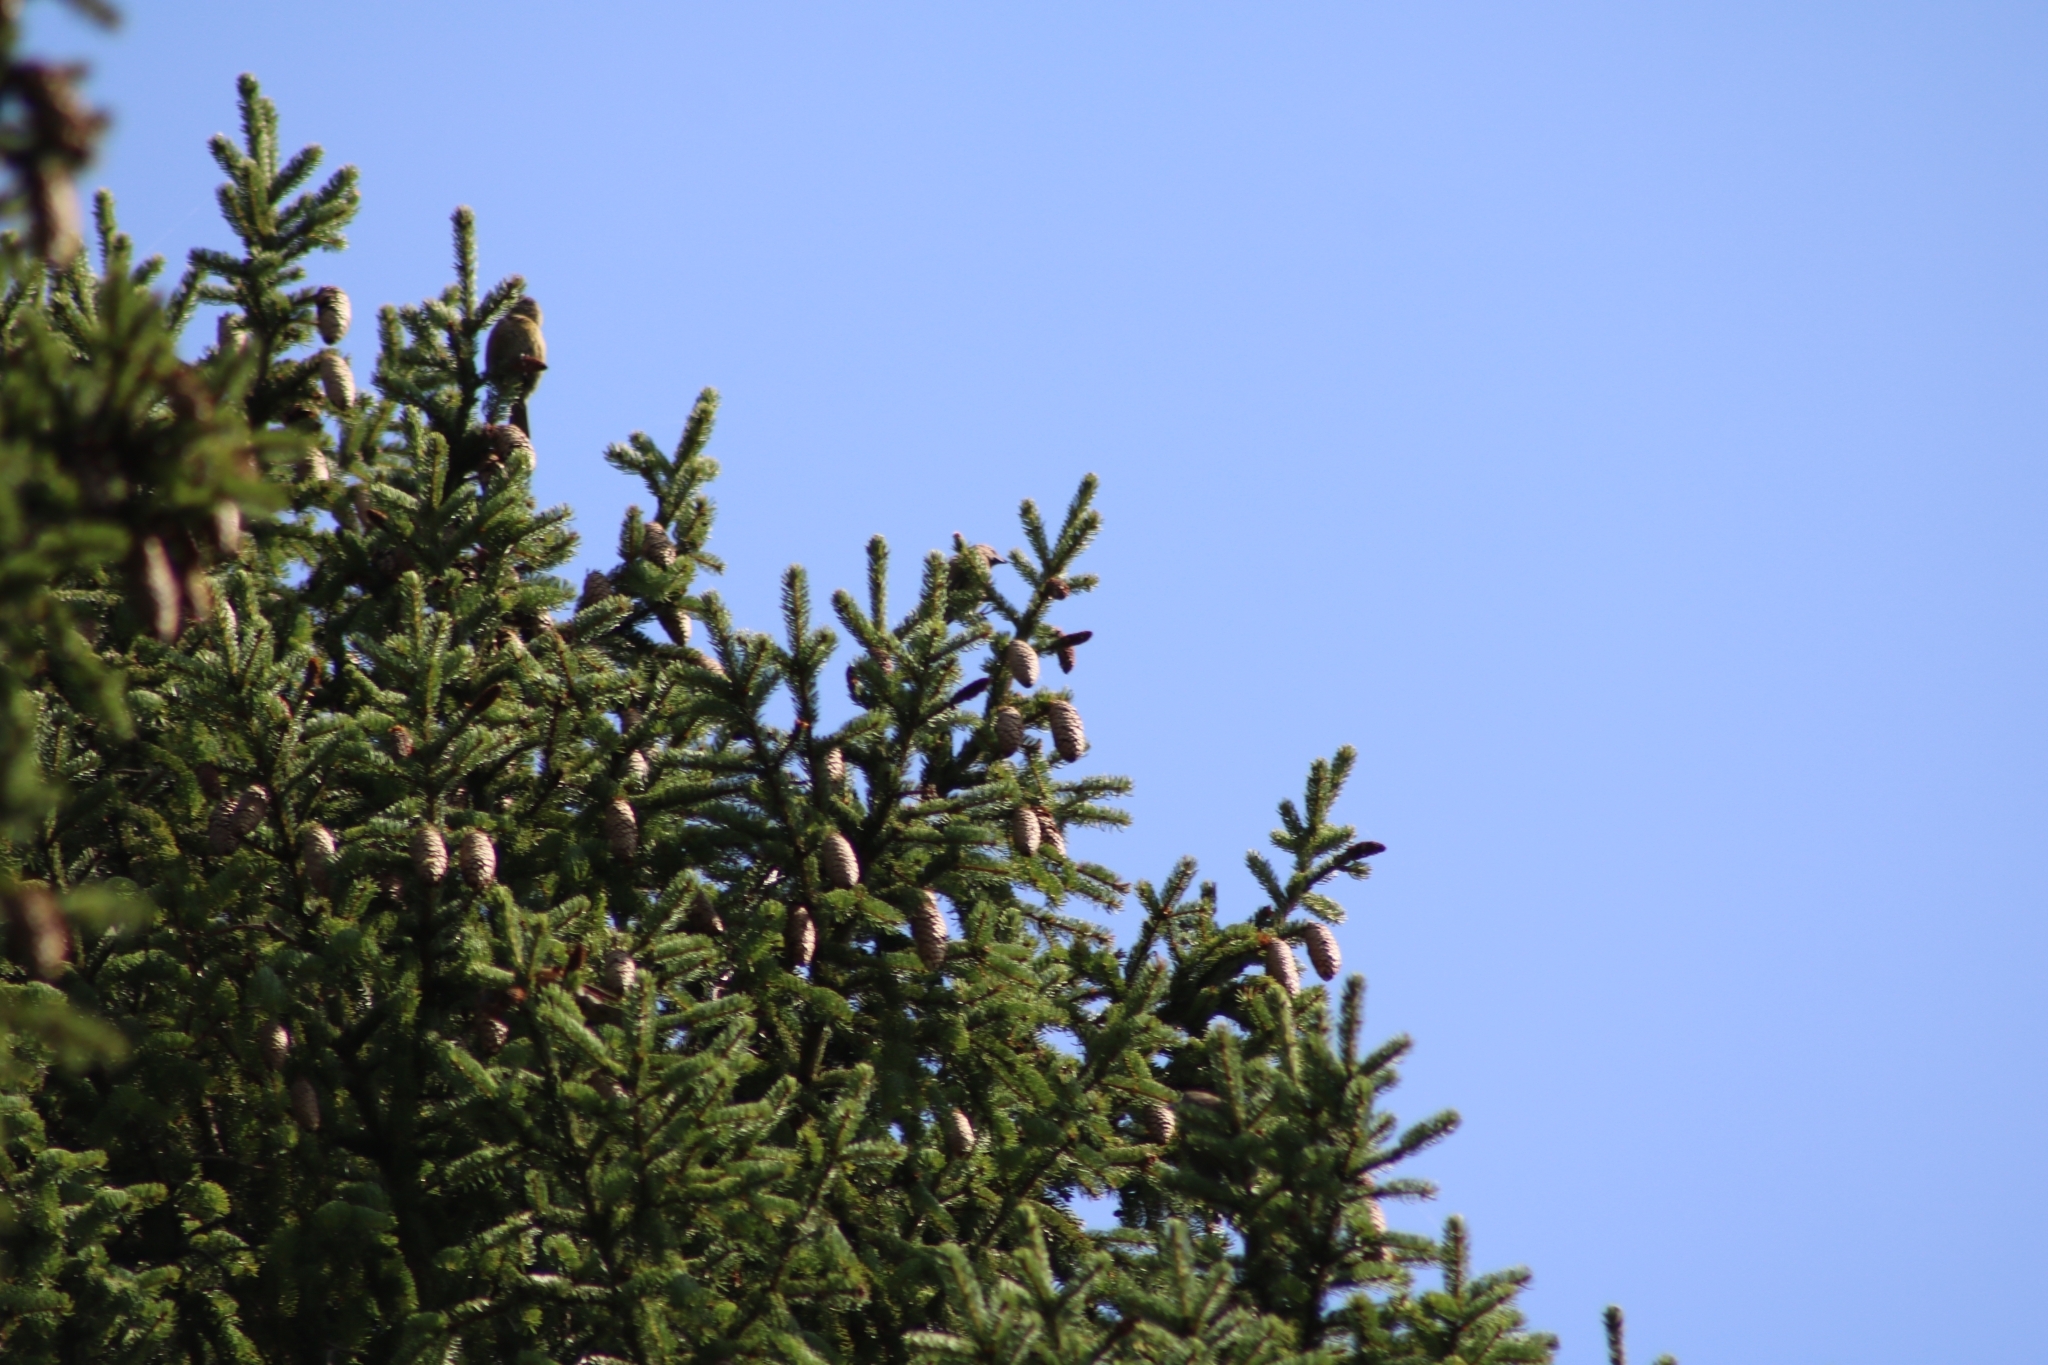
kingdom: Animalia
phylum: Chordata
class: Aves
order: Passeriformes
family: Fringillidae
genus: Loxia
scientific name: Loxia curvirostra
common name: Red crossbill
